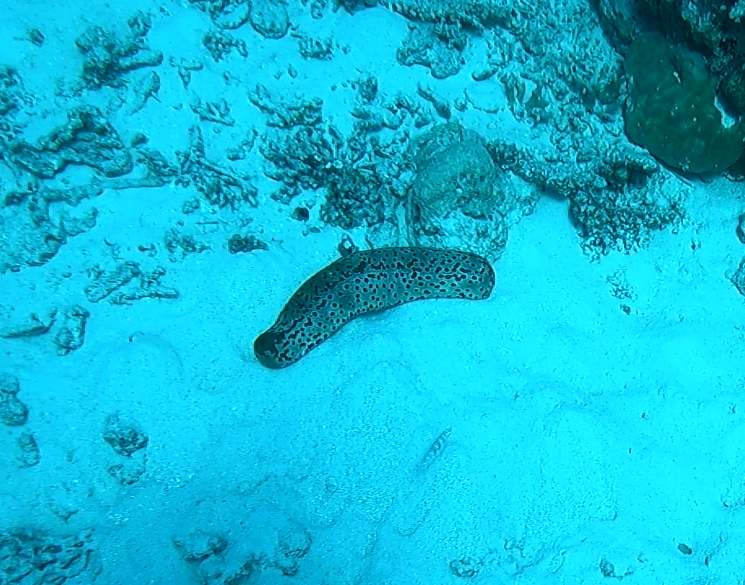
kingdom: Animalia
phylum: Echinodermata
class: Holothuroidea
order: Holothuriida
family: Holothuriidae
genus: Bohadschia
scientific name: Bohadschia argus
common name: Leopardfish
